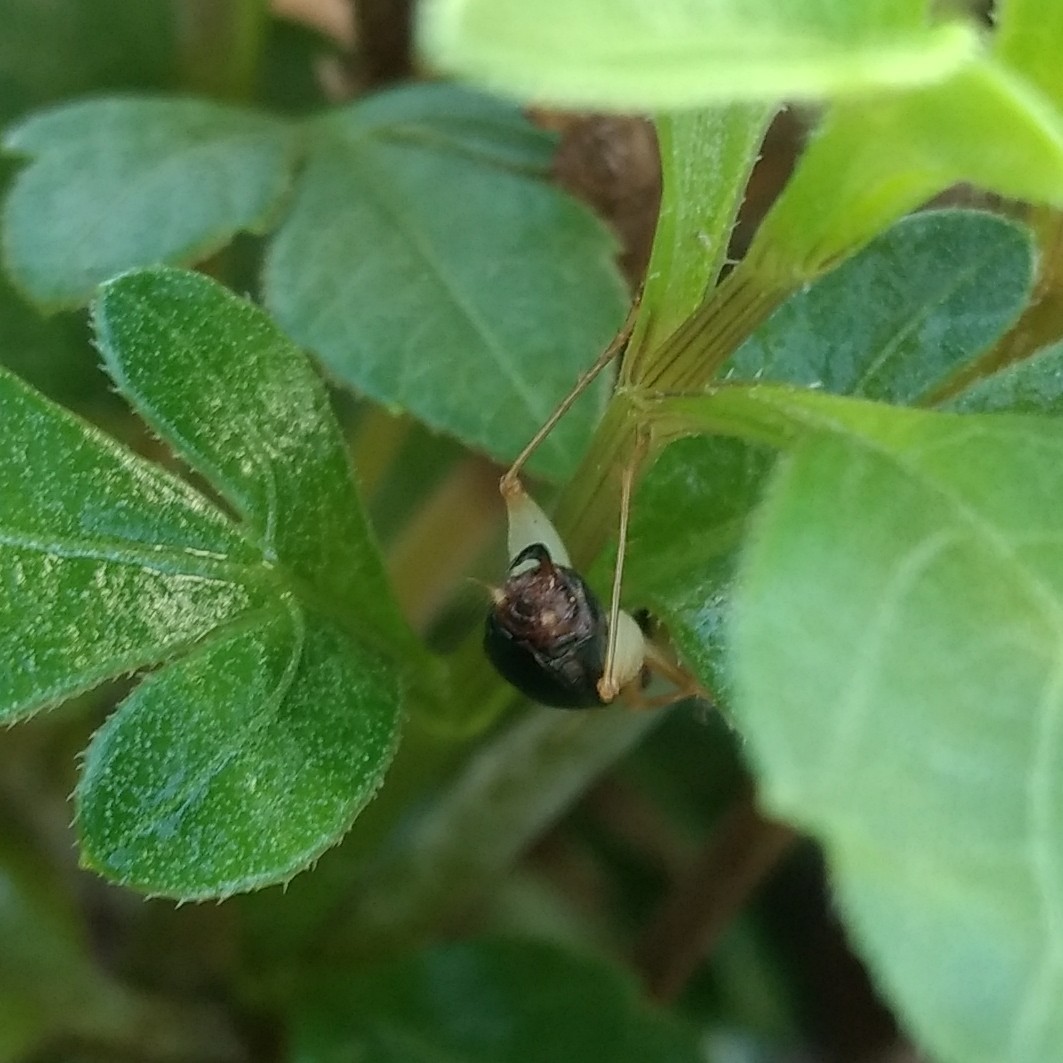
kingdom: Animalia
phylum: Arthropoda
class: Insecta
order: Orthoptera
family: Trigonidiidae
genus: Phyllopalpus
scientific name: Phyllopalpus pulchellus
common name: Handsome trig
